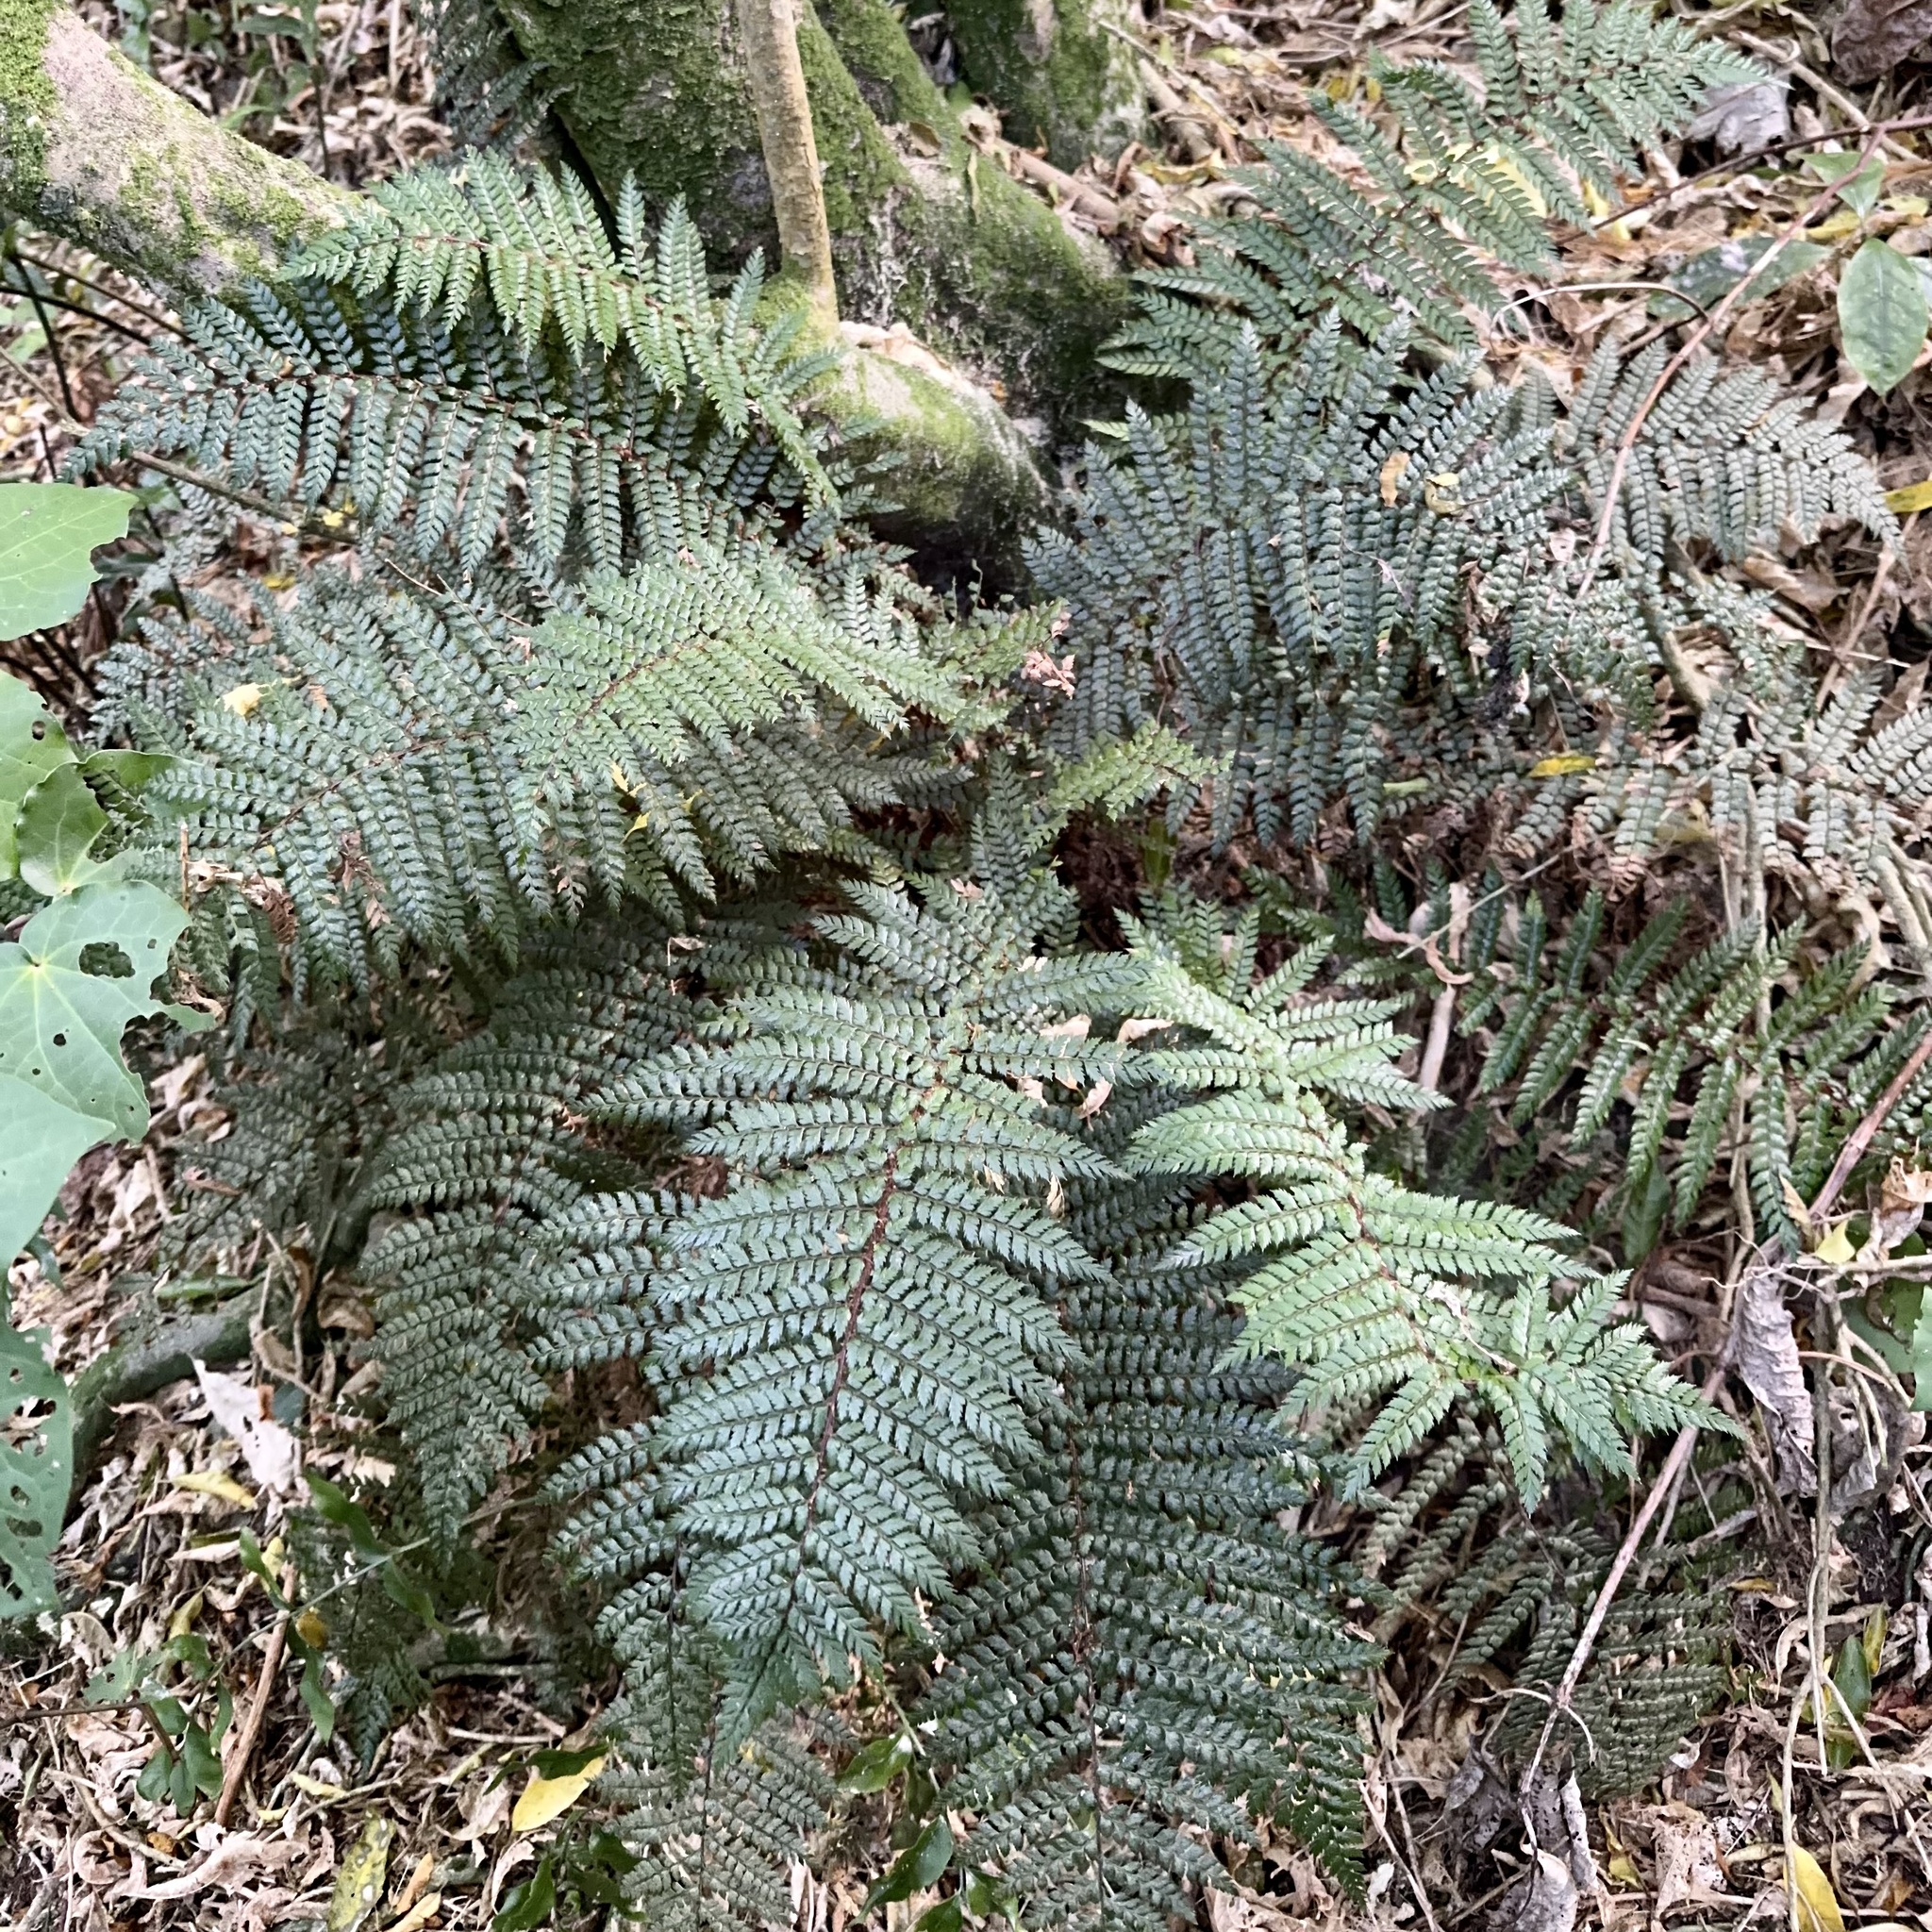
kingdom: Plantae
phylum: Tracheophyta
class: Polypodiopsida
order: Polypodiales
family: Dryopteridaceae
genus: Polystichum
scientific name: Polystichum vestitum
